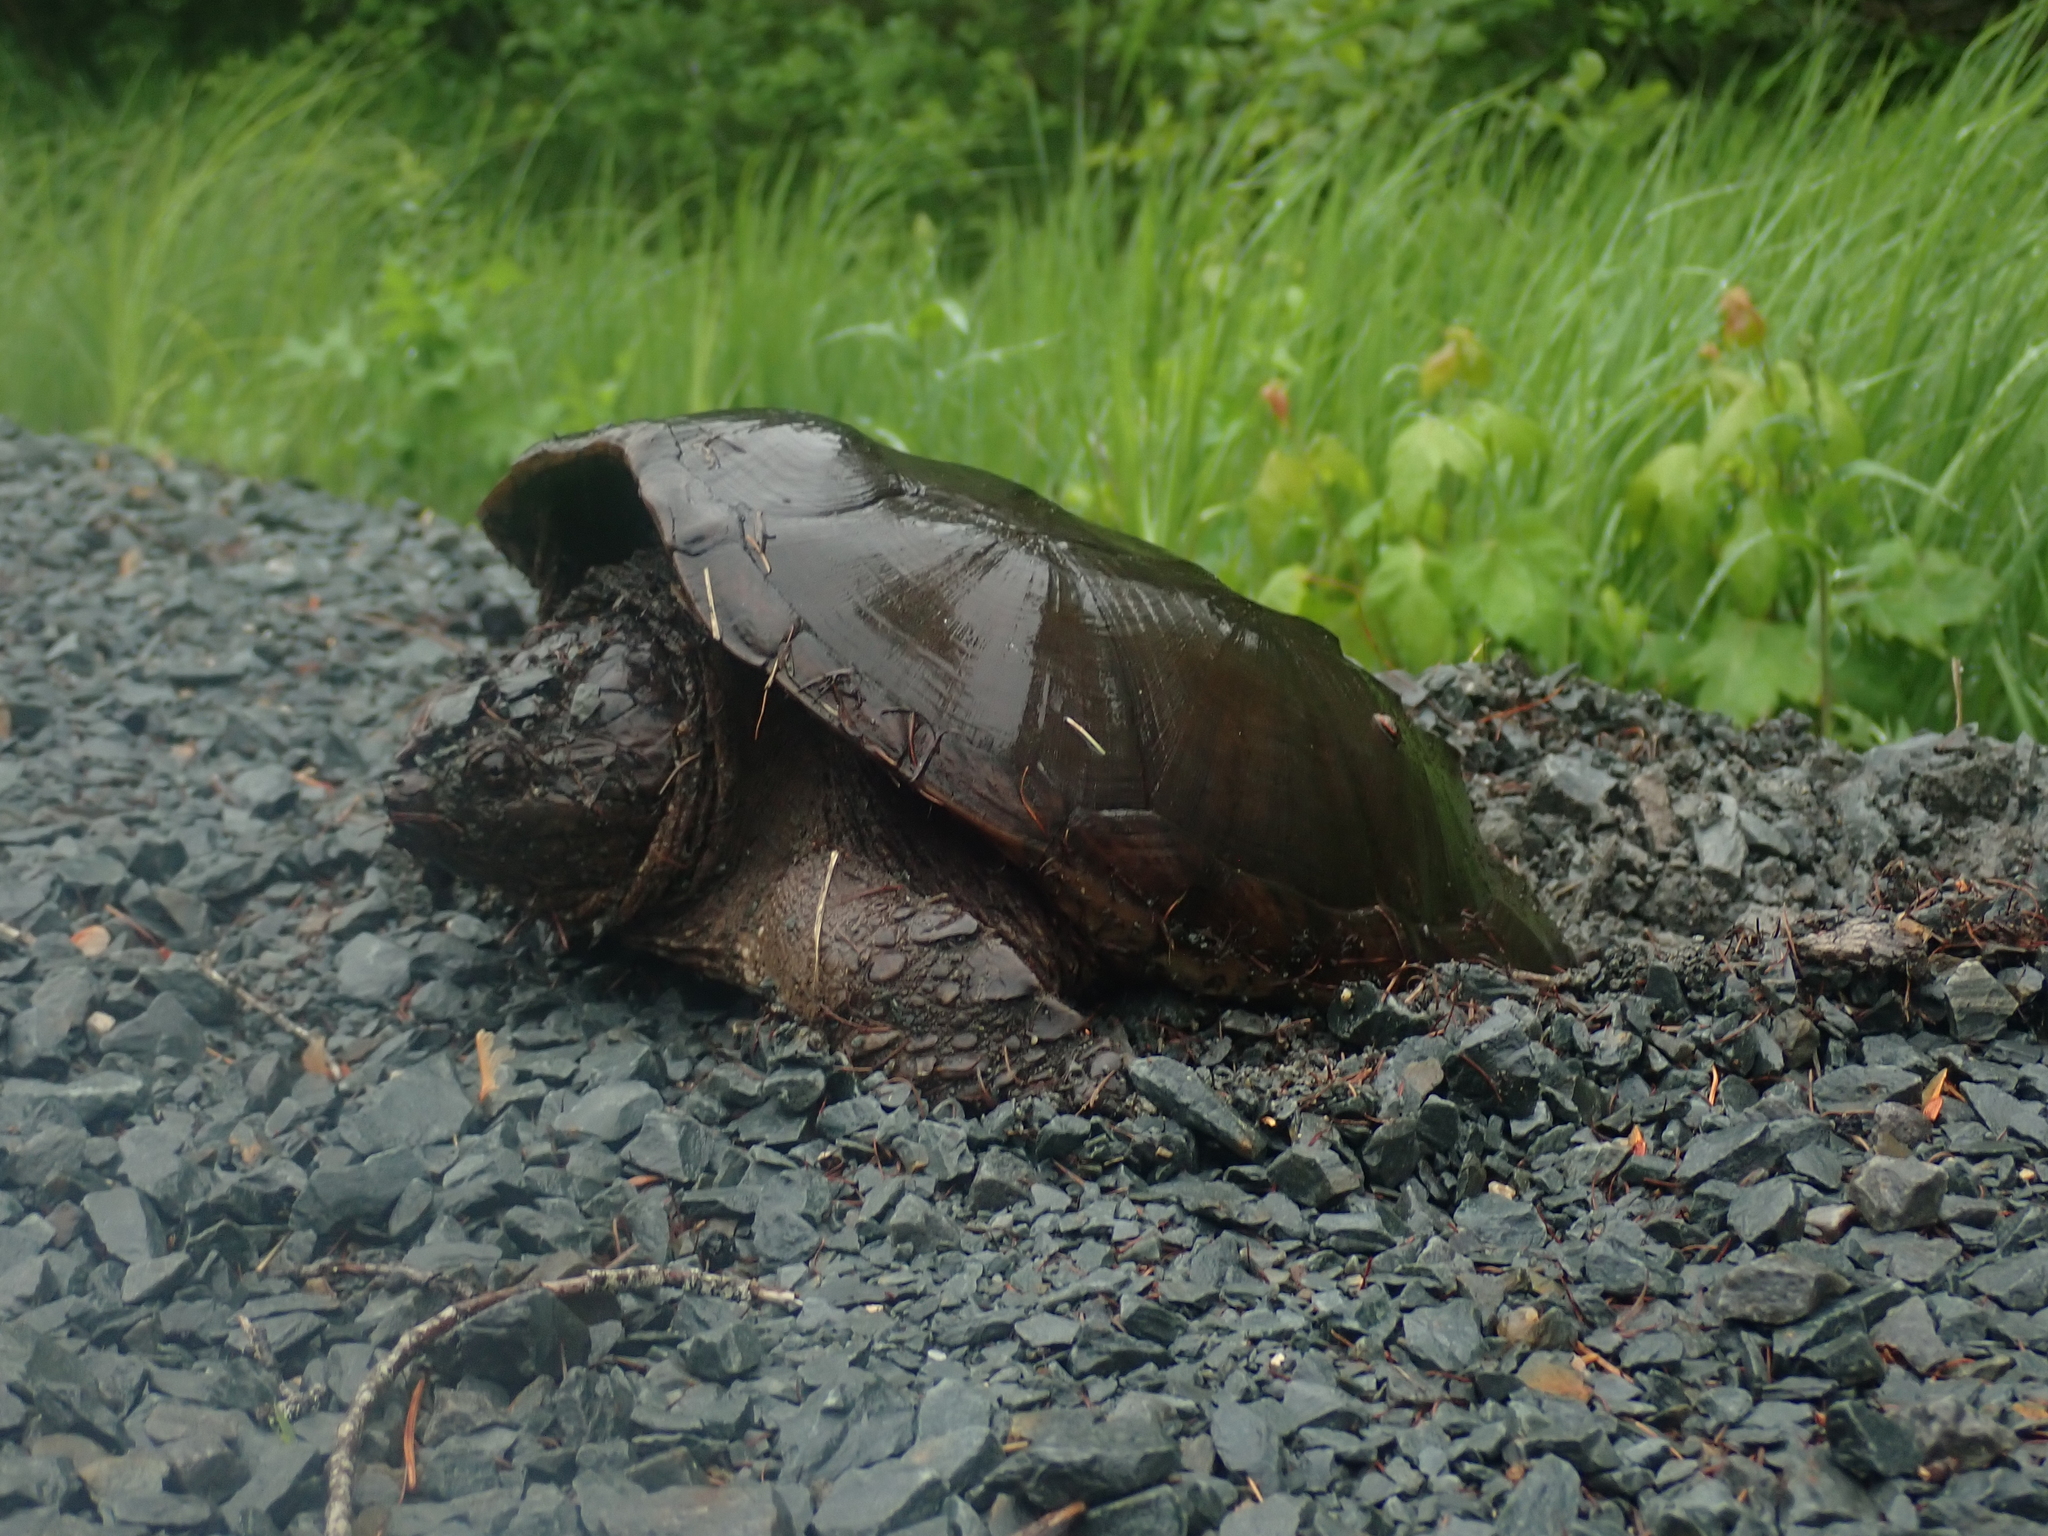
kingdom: Animalia
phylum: Chordata
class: Testudines
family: Chelydridae
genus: Chelydra
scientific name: Chelydra serpentina
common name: Common snapping turtle
